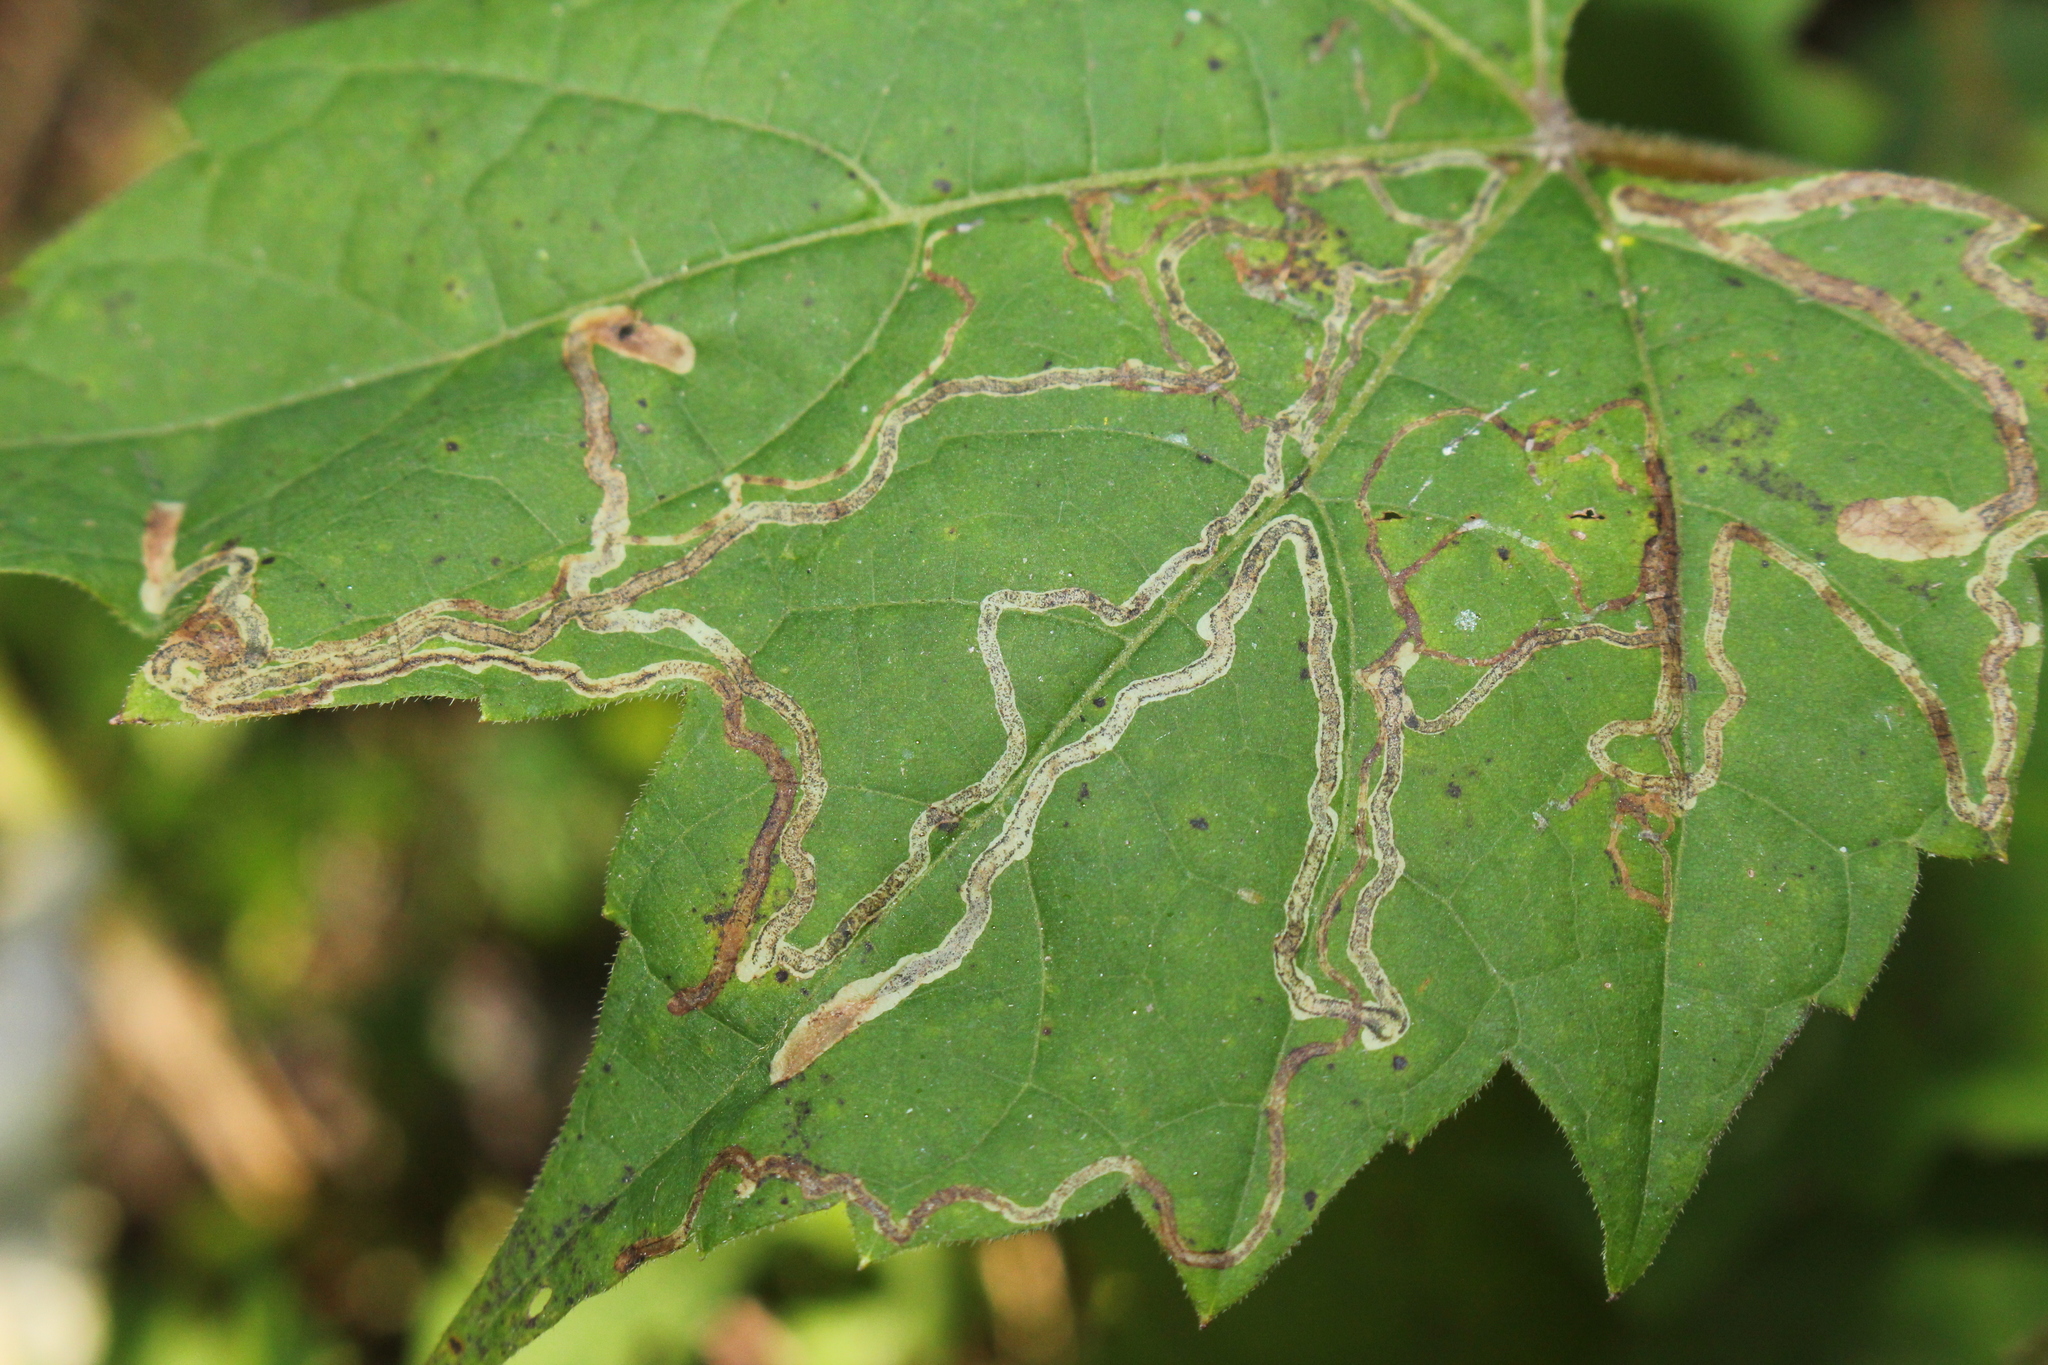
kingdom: Animalia
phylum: Arthropoda
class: Insecta
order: Lepidoptera
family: Gracillariidae
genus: Phyllocnistis
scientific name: Phyllocnistis vitifoliella
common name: Grape leaf-miner moth
